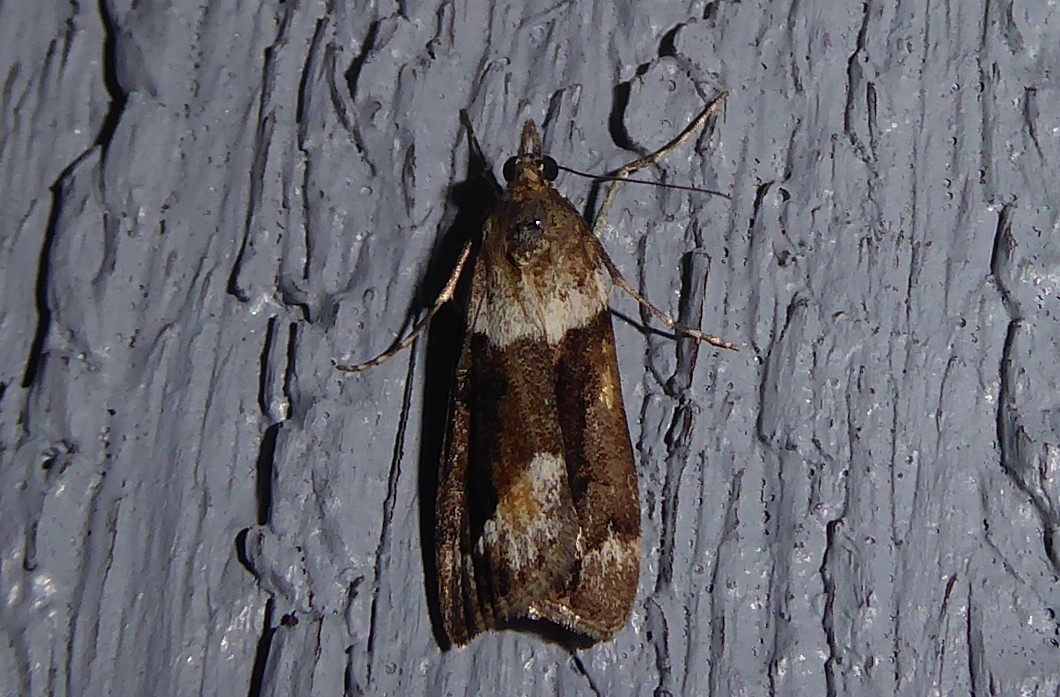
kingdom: Animalia
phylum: Arthropoda
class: Insecta
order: Lepidoptera
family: Crambidae
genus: Eudonia
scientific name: Eudonia submarginalis
